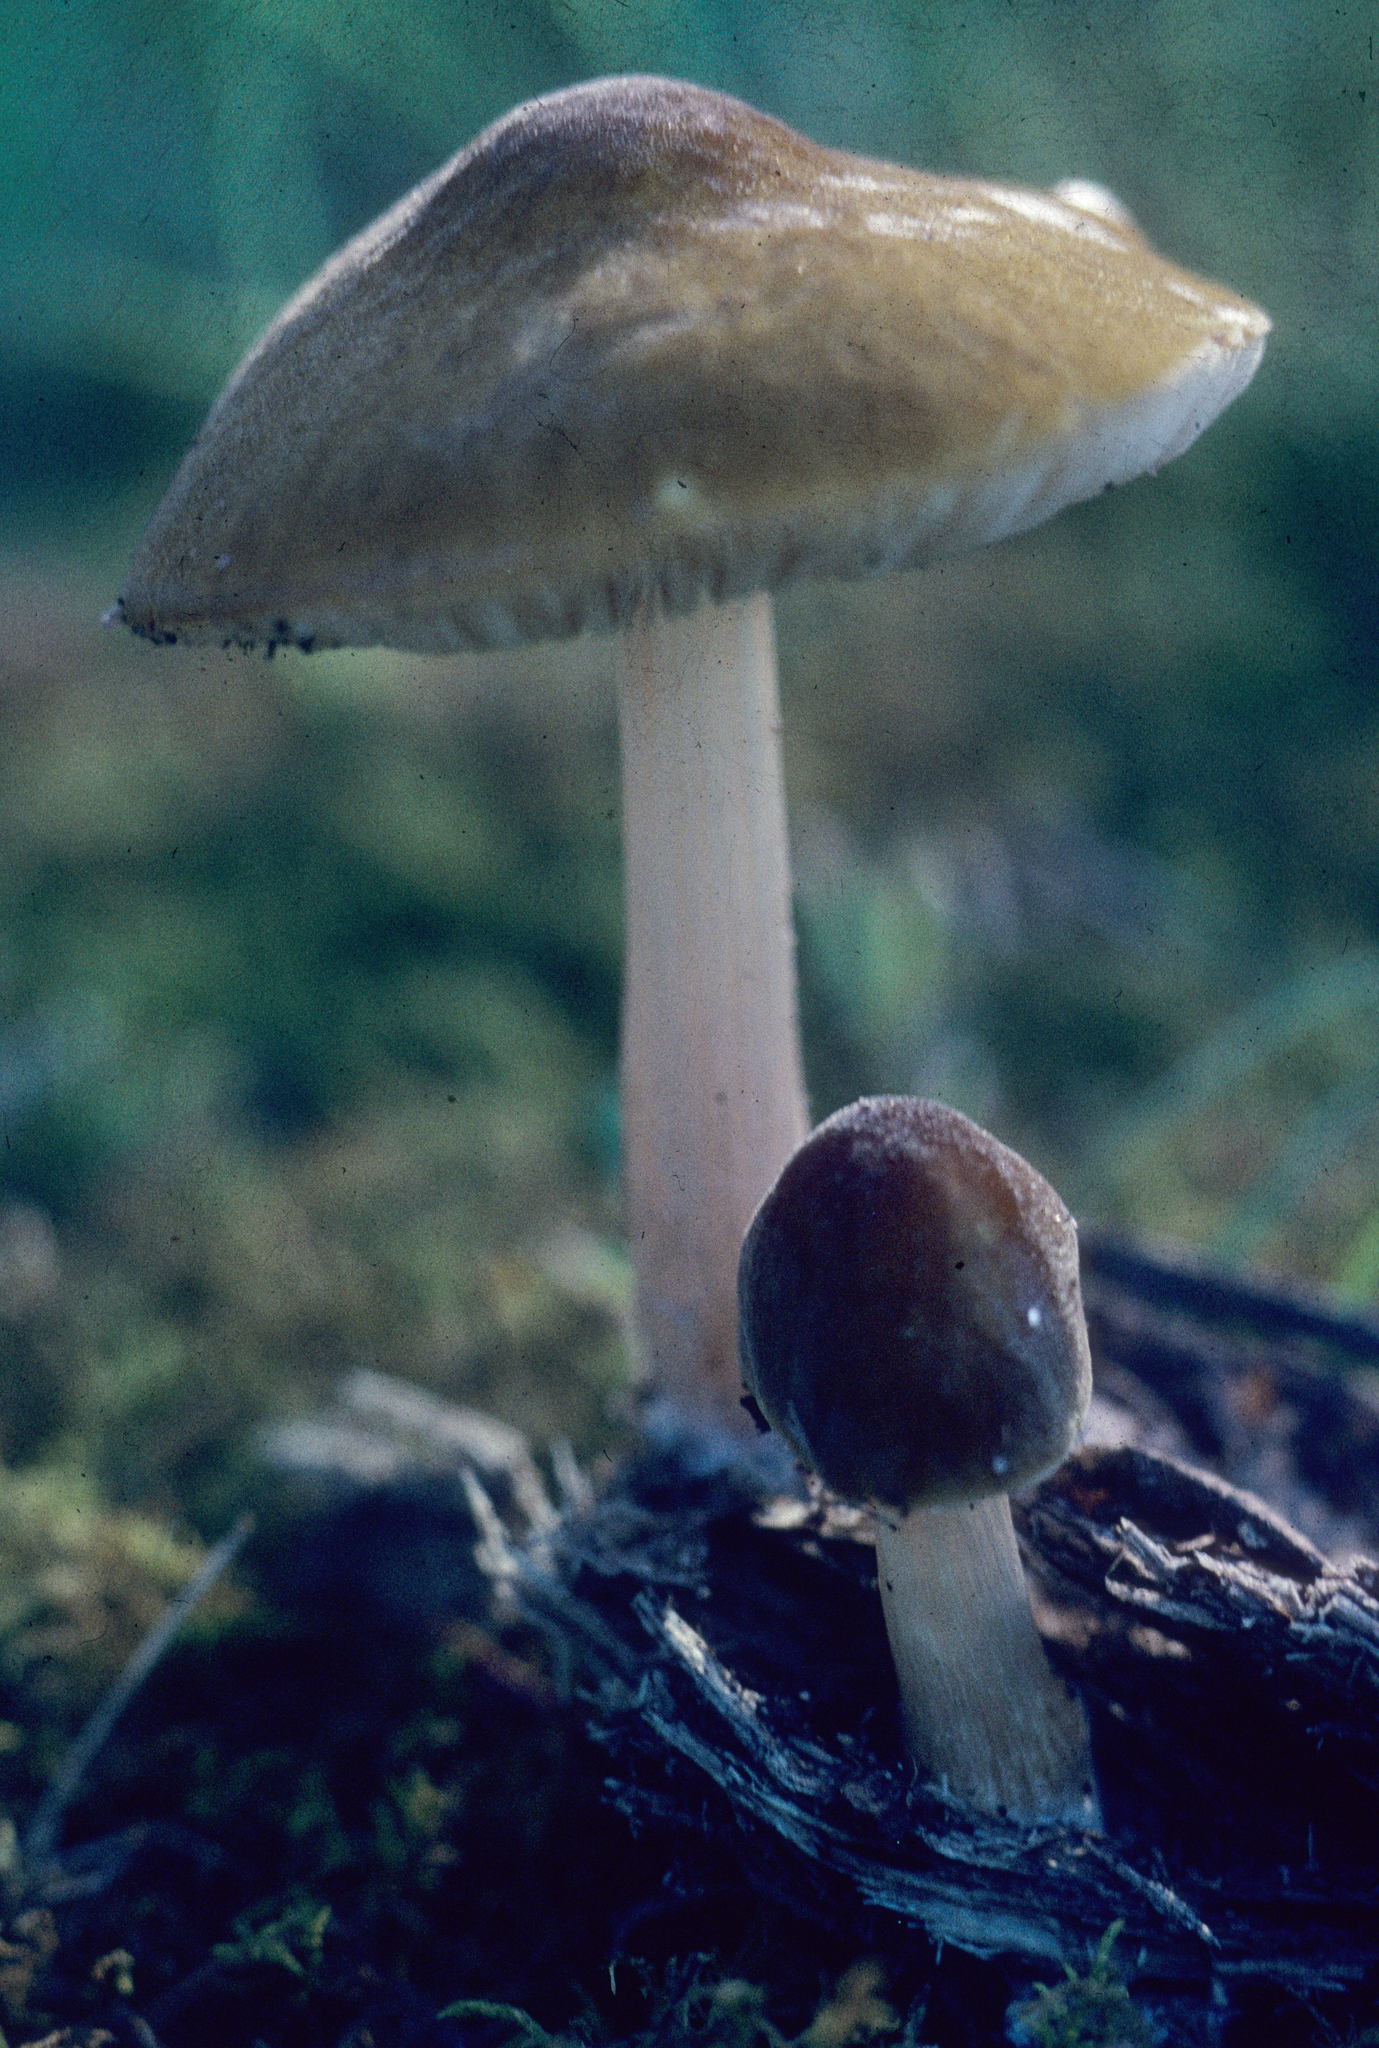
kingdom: Fungi
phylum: Basidiomycota
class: Agaricomycetes
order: Agaricales
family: Pluteaceae
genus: Pluteus
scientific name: Pluteus flavofuligineus
